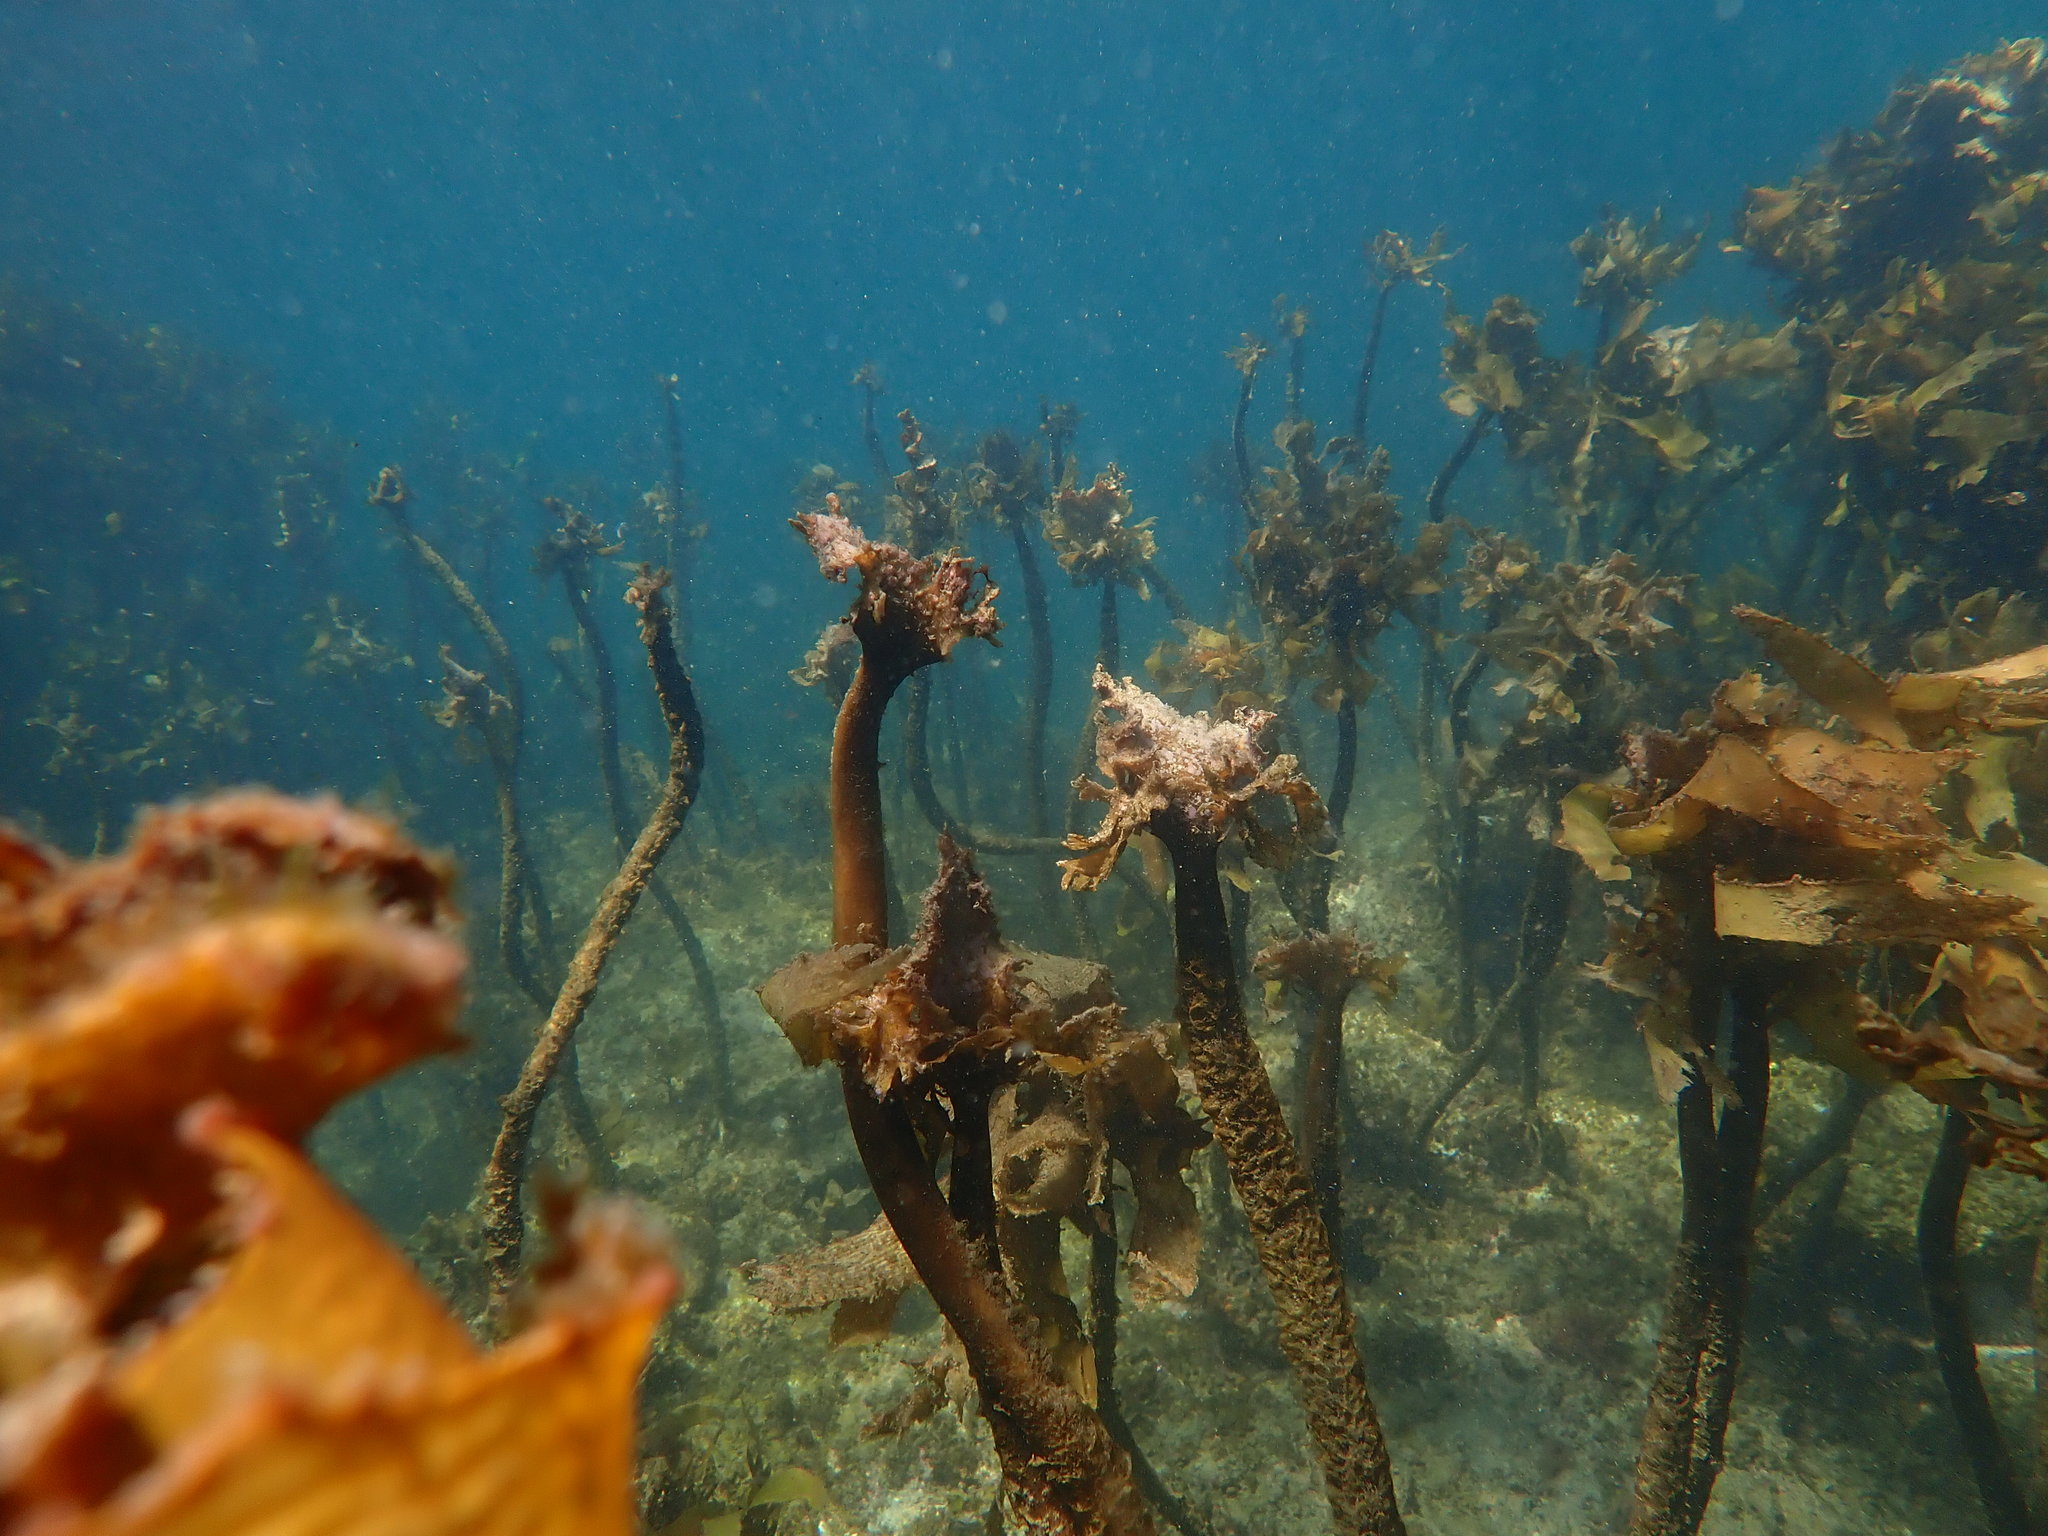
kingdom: Chromista
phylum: Ochrophyta
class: Phaeophyceae
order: Laminariales
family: Lessoniaceae
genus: Ecklonia
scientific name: Ecklonia radiata
